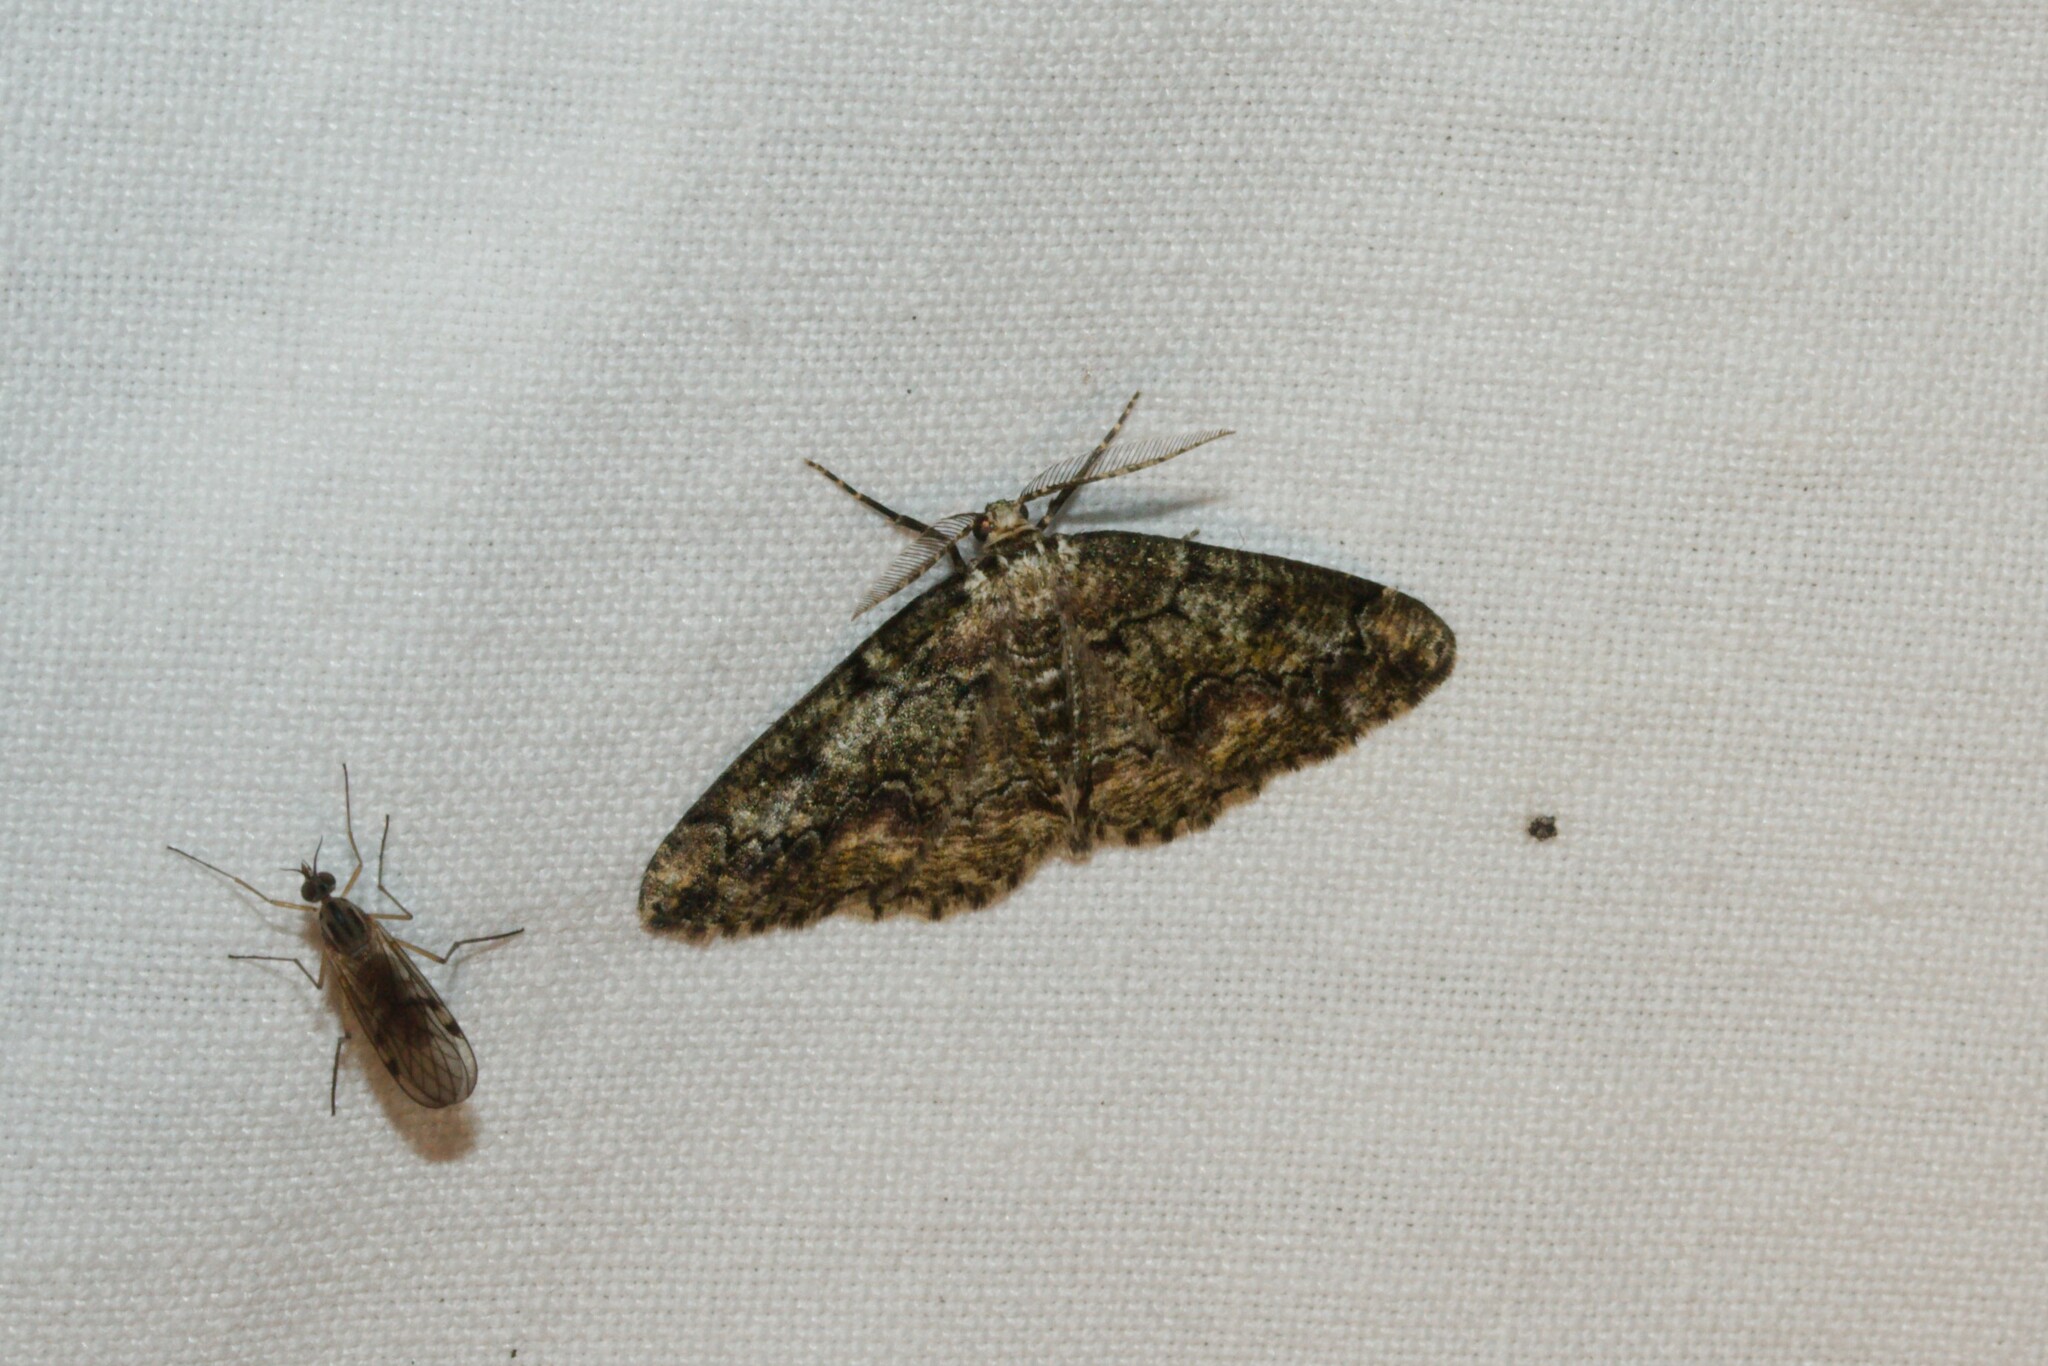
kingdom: Animalia
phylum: Arthropoda
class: Insecta
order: Lepidoptera
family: Geometridae
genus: Cleorodes
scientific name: Cleorodes lichenaria
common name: Brussels lace
